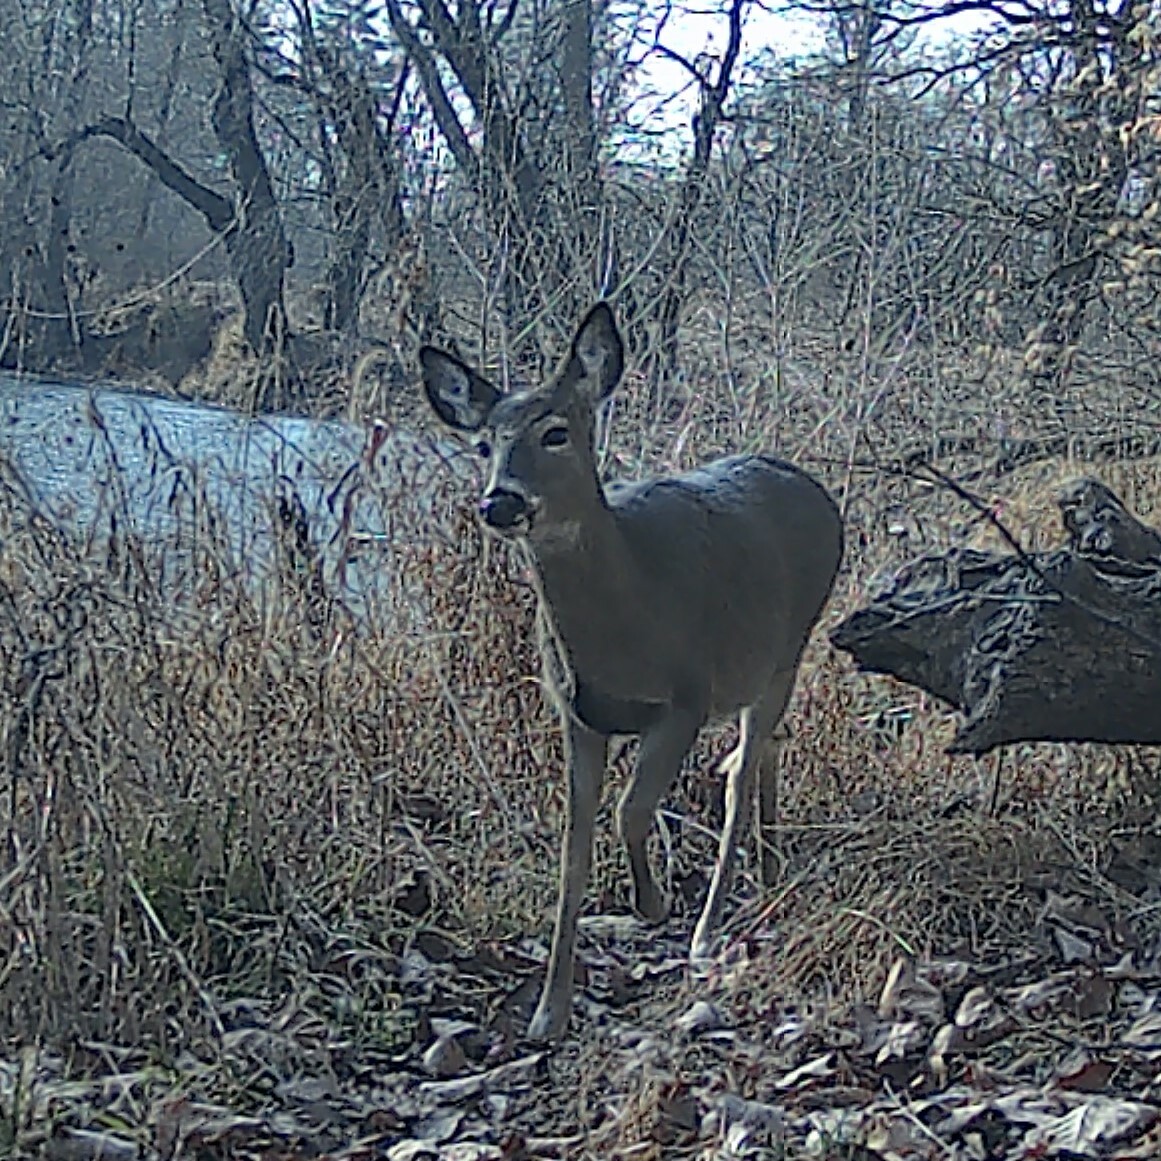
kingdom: Animalia
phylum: Chordata
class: Mammalia
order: Artiodactyla
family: Cervidae
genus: Odocoileus
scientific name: Odocoileus virginianus
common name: White-tailed deer
